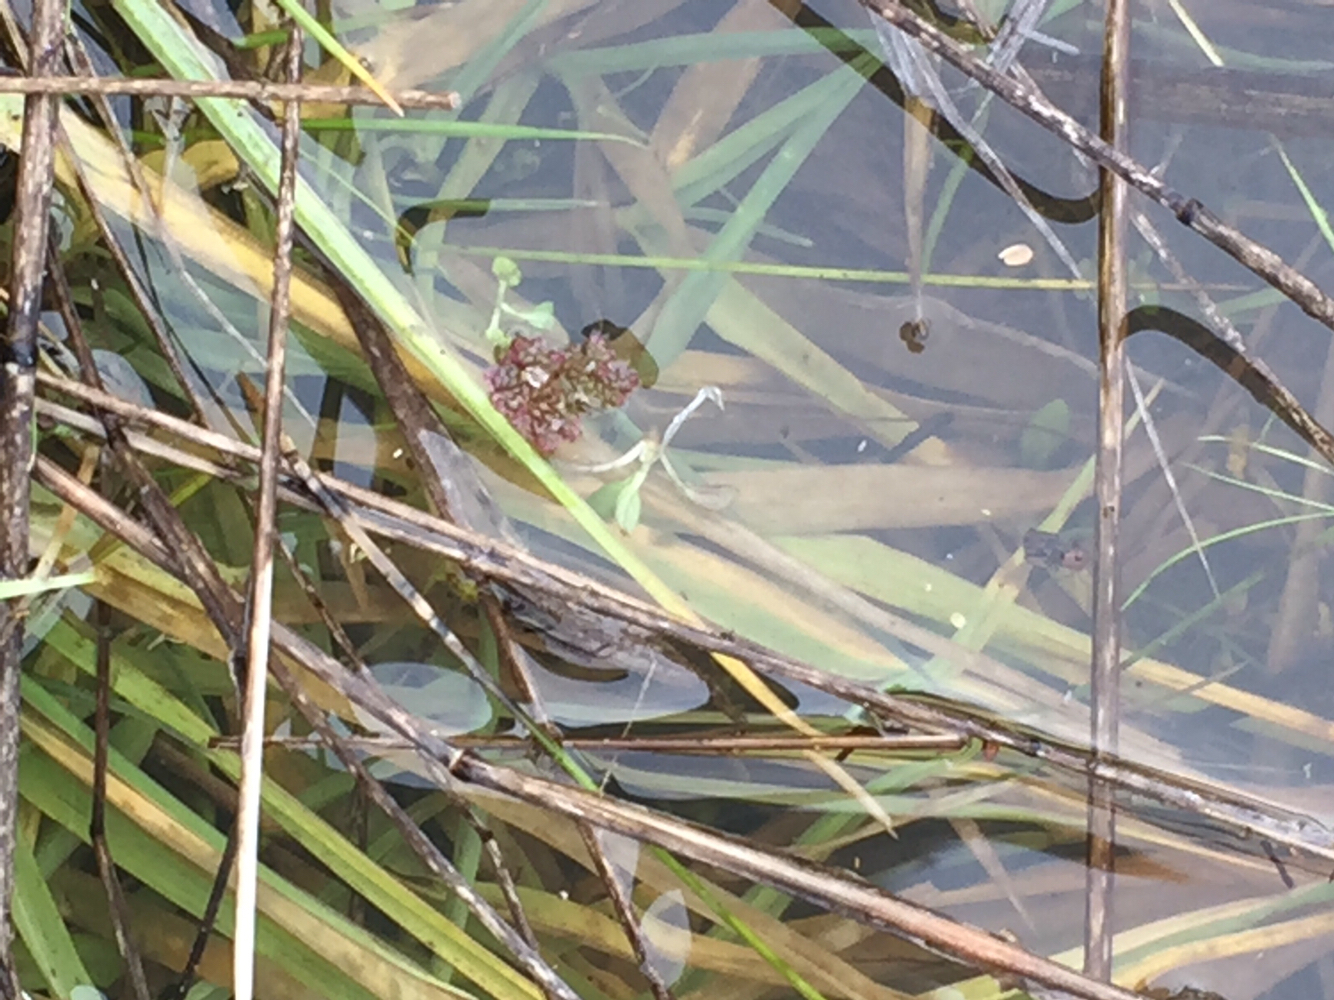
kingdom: Animalia
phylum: Chordata
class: Amphibia
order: Caudata
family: Salamandridae
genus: Taricha
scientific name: Taricha torosa
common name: California newt
